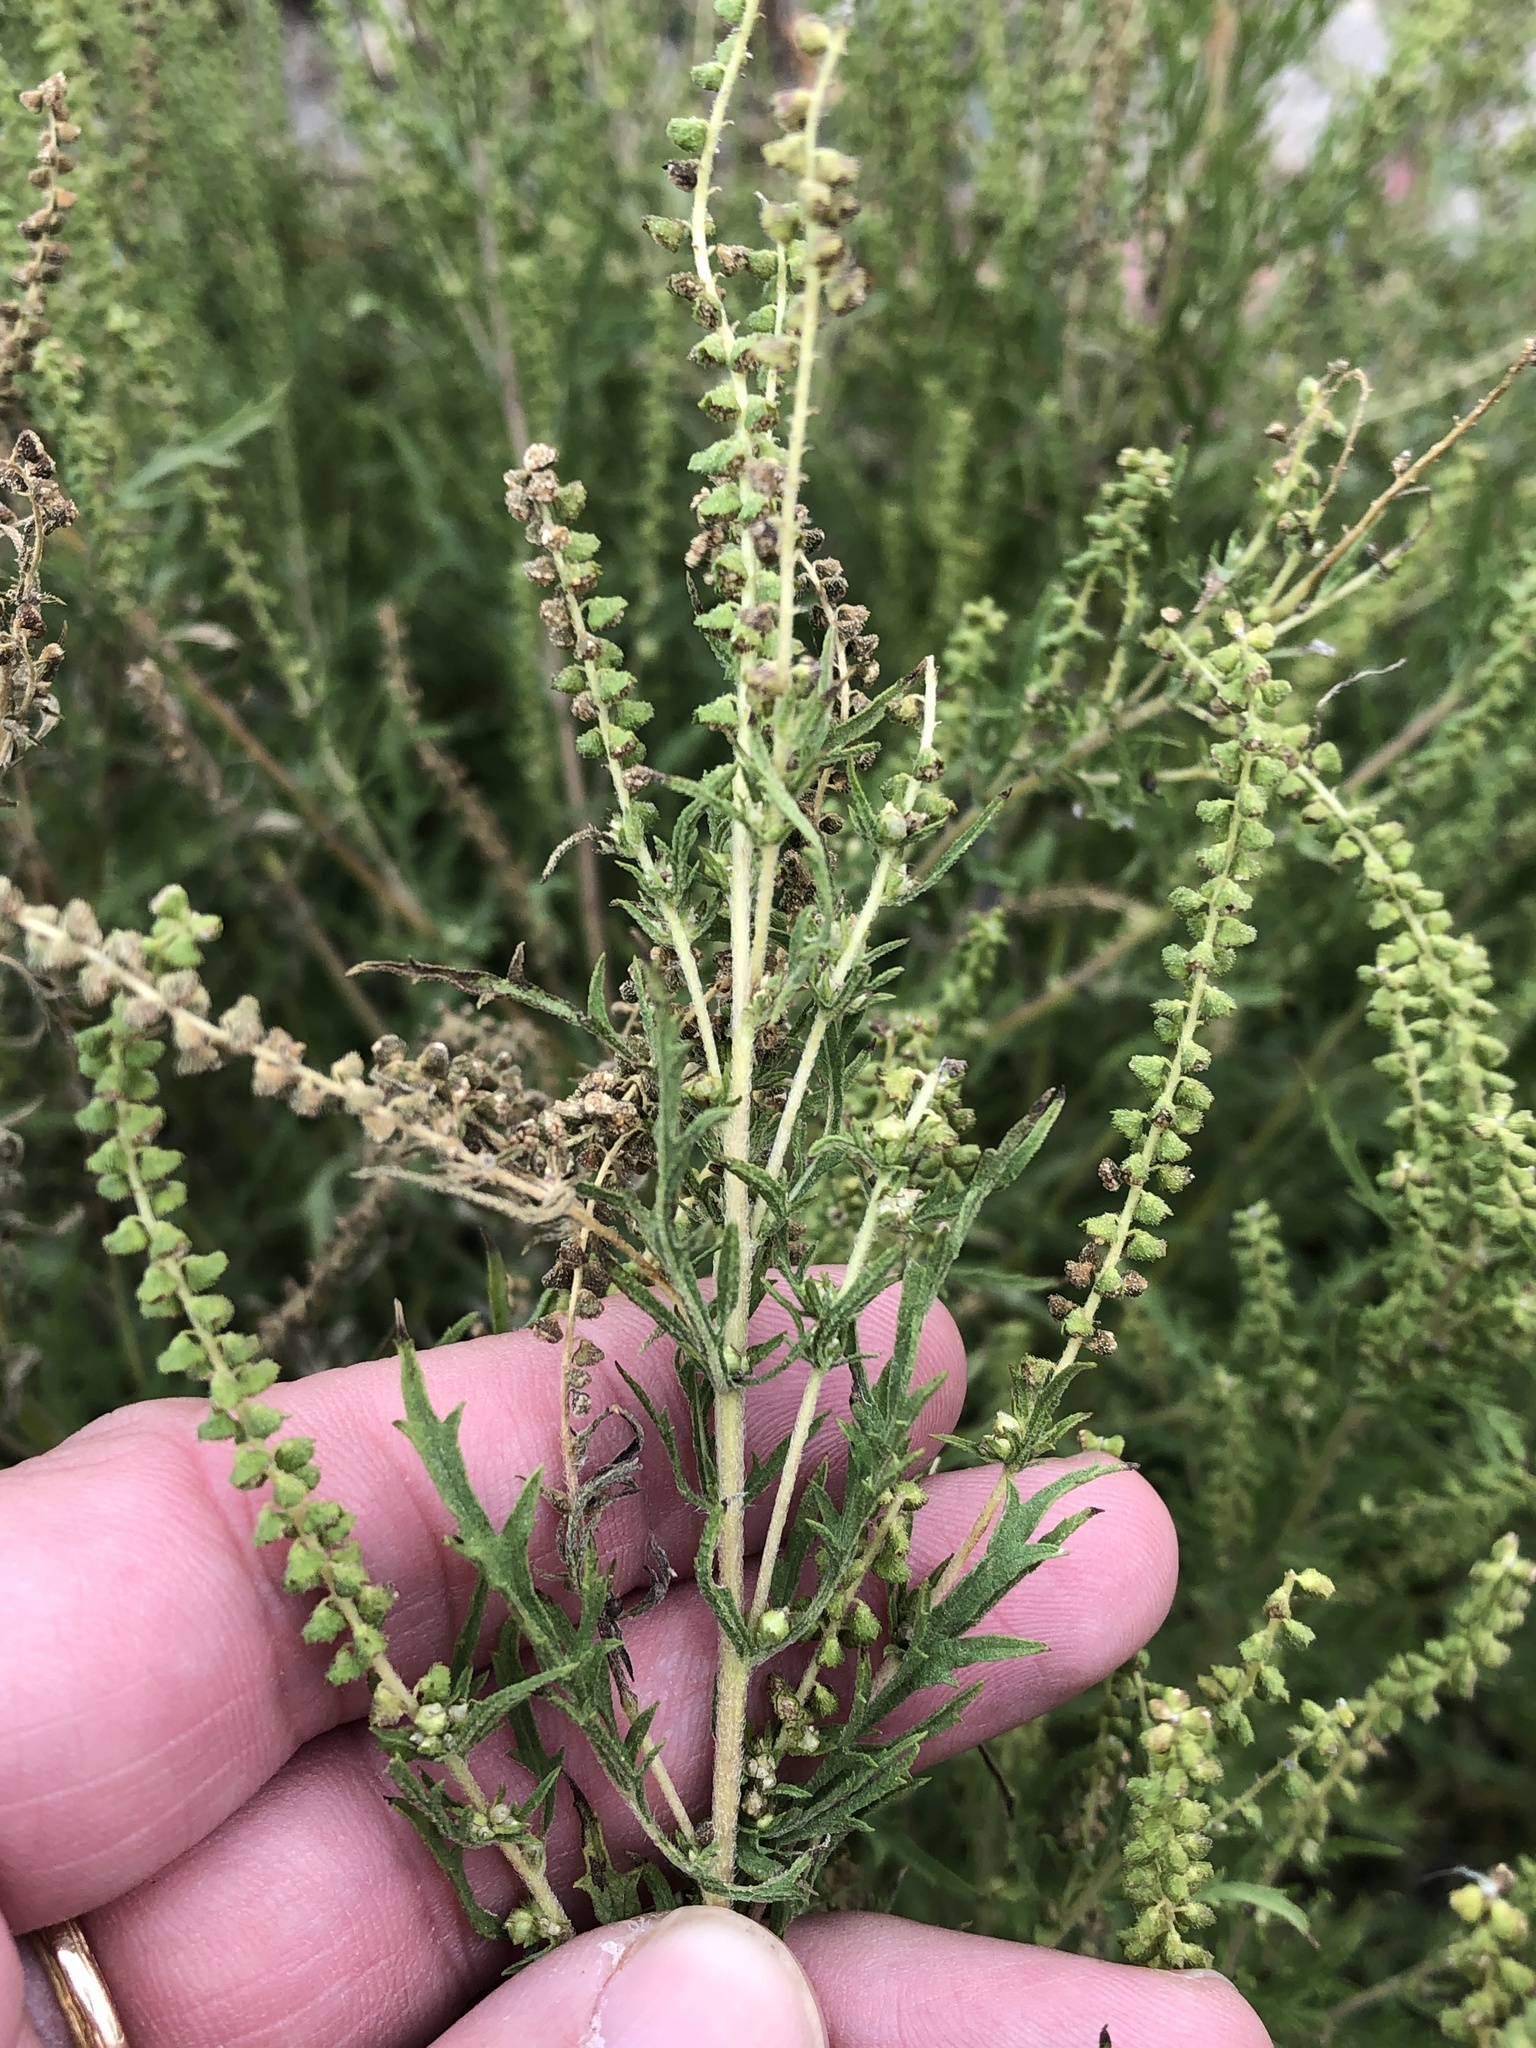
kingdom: Plantae
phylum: Tracheophyta
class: Magnoliopsida
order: Asterales
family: Asteraceae
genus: Ambrosia
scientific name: Ambrosia psilostachya
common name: Perennial ragweed
